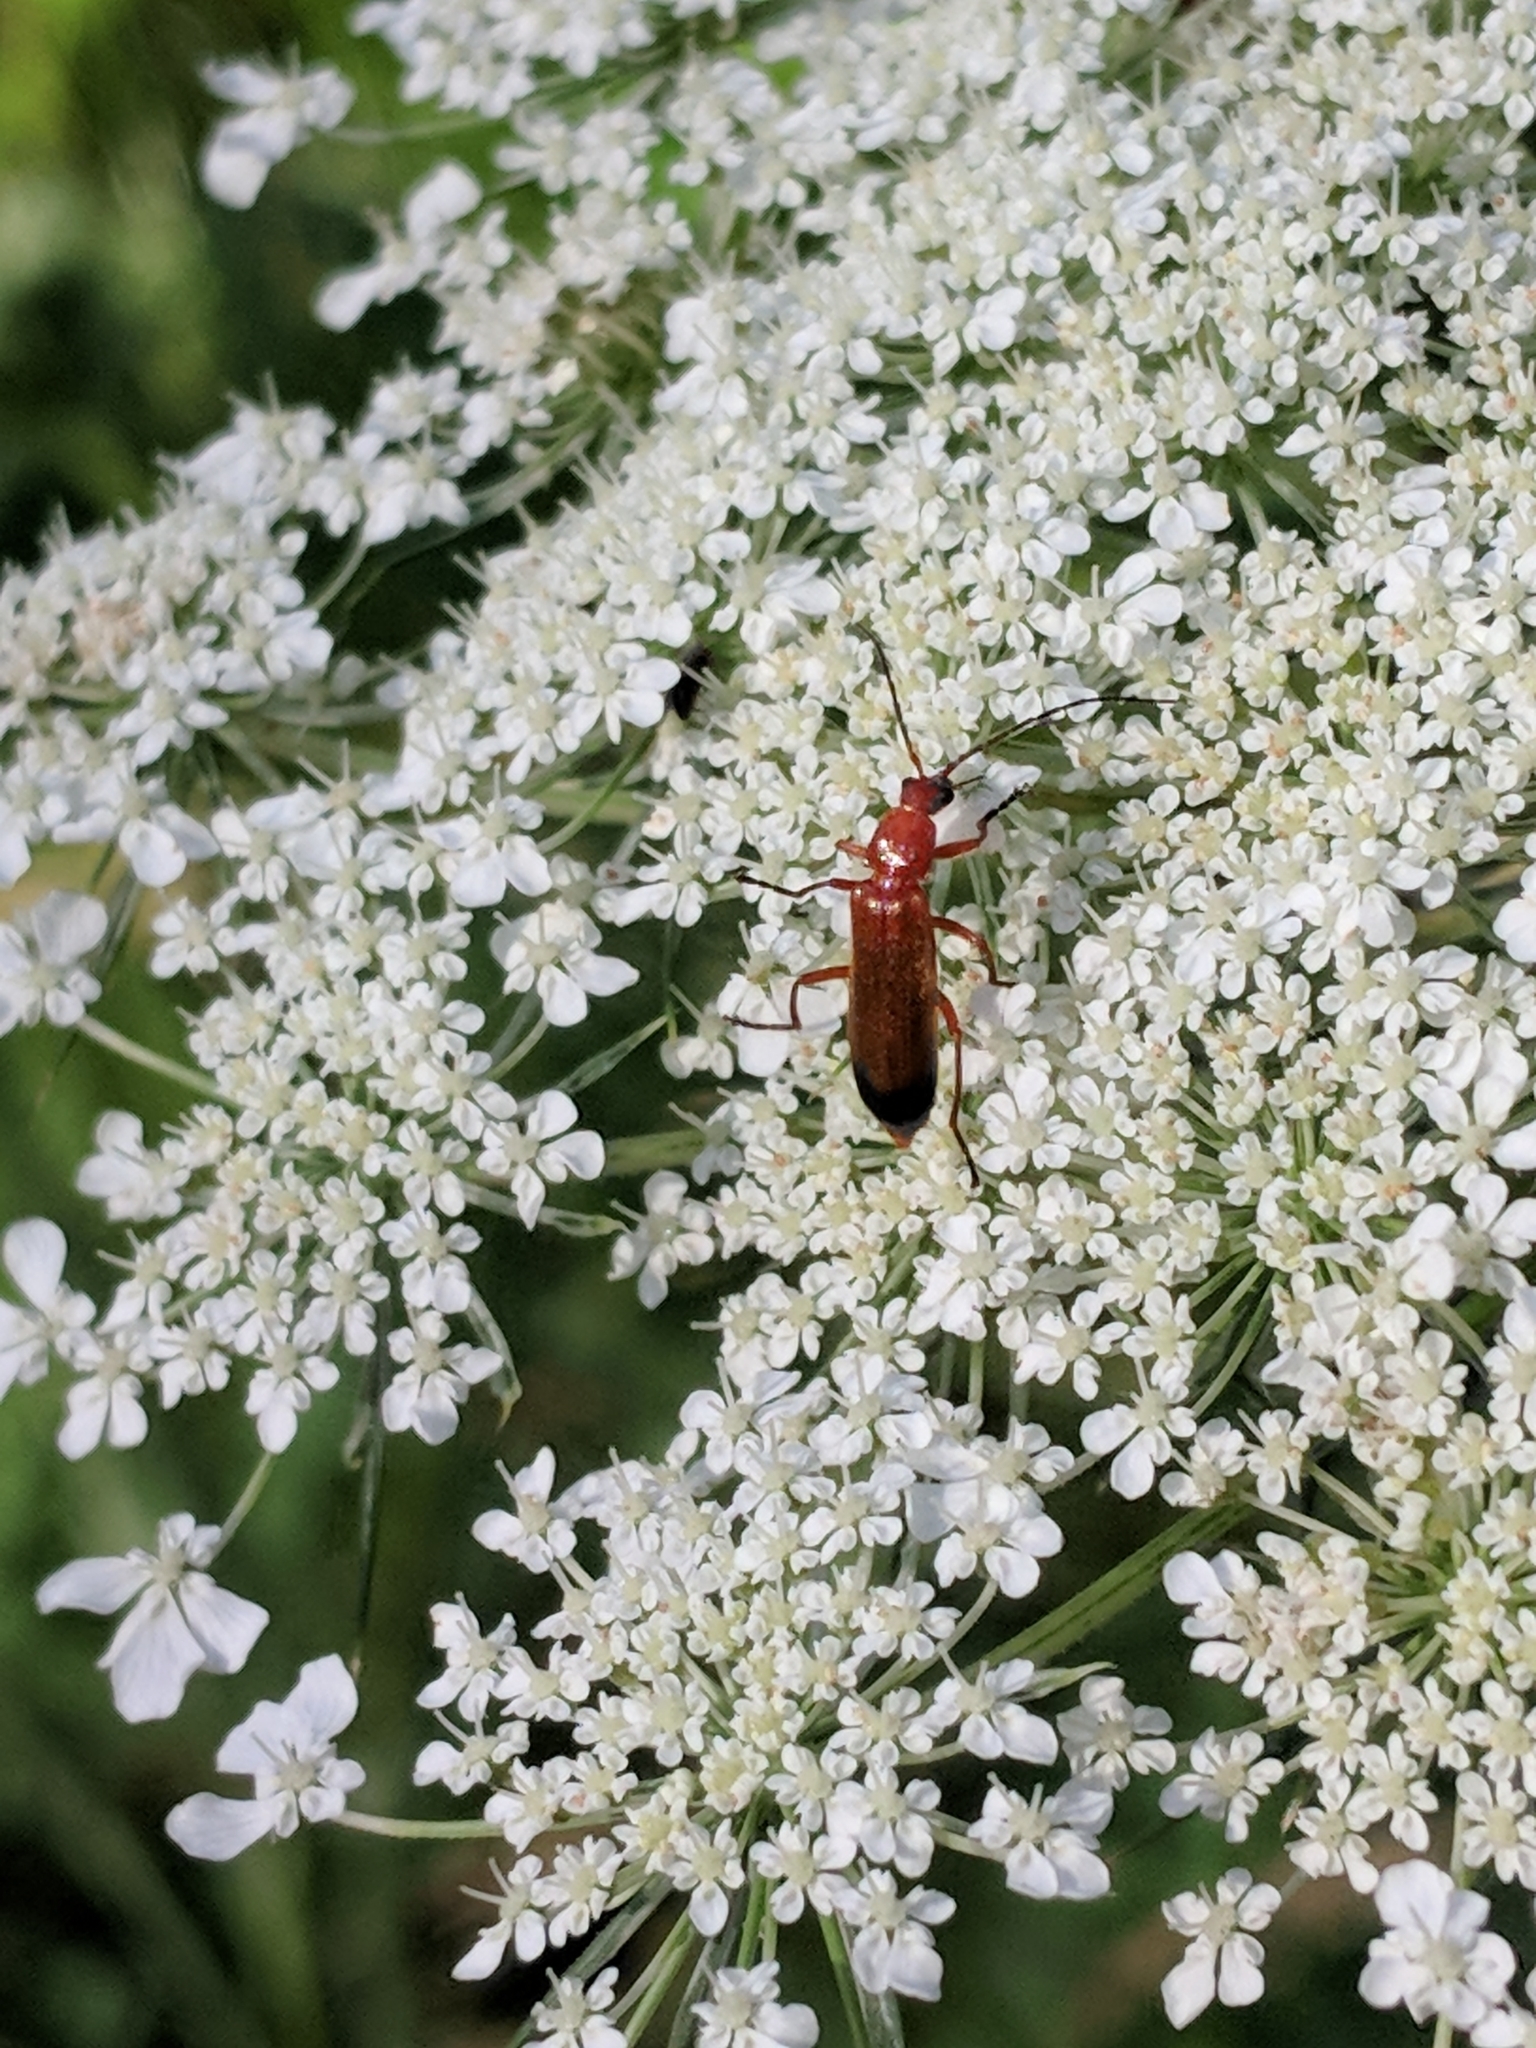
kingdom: Animalia
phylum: Arthropoda
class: Insecta
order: Coleoptera
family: Cantharidae
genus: Rhagonycha
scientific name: Rhagonycha fulva
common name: Common red soldier beetle
